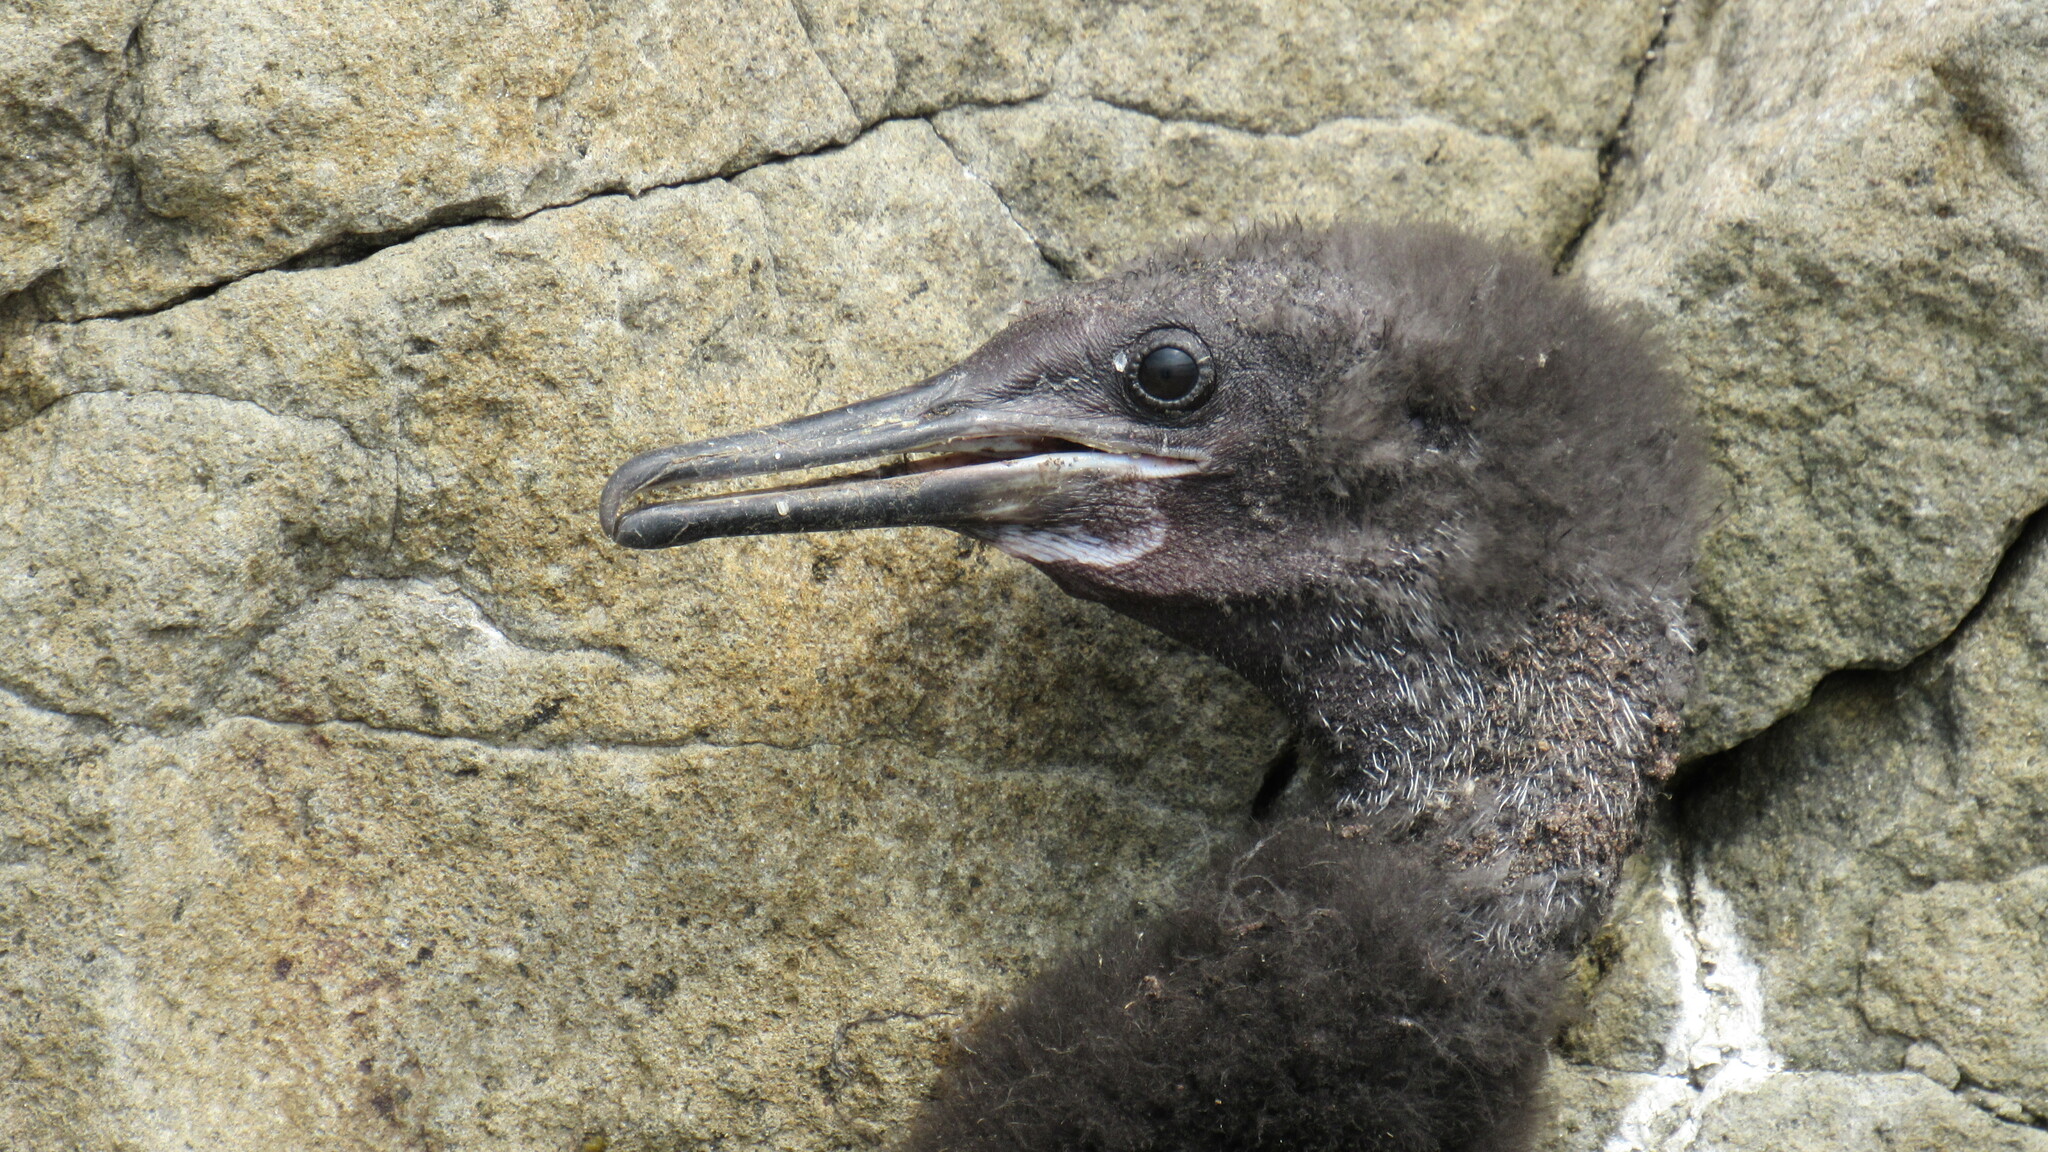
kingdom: Animalia
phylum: Chordata
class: Aves
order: Suliformes
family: Phalacrocoracidae
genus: Phalacrocorax
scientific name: Phalacrocorax urile
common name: Red-faced cormorant
